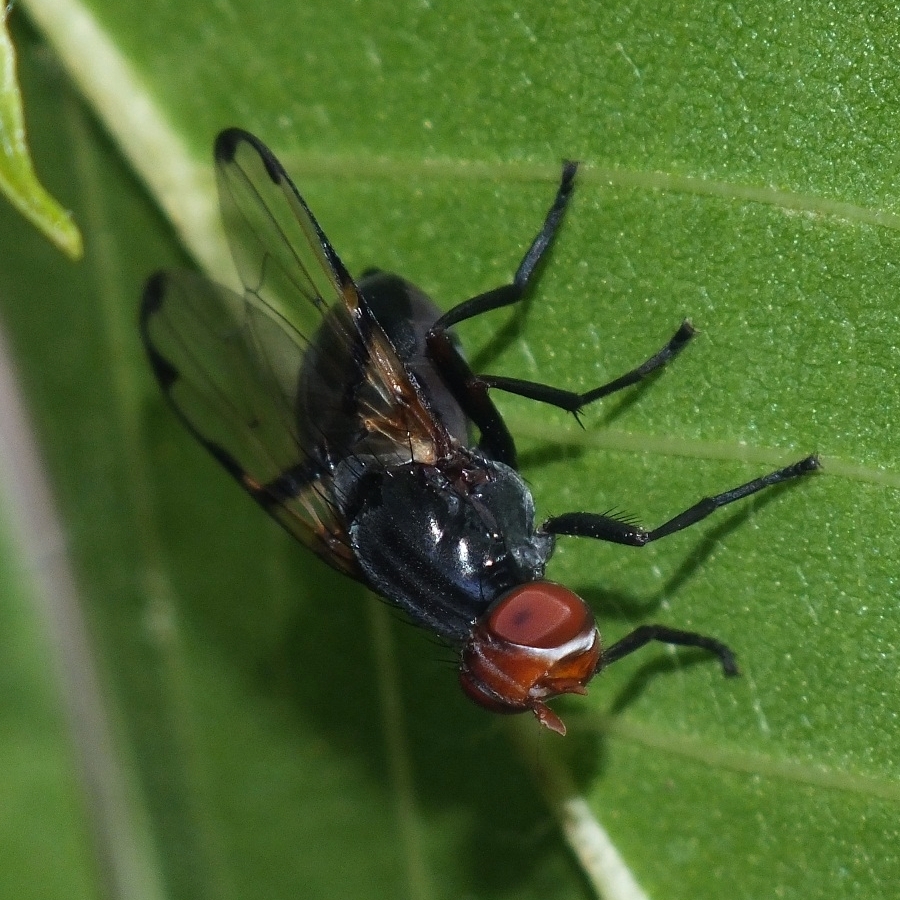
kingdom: Animalia
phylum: Arthropoda
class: Insecta
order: Diptera
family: Ulidiidae
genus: Ceroxys
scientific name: Ceroxys munda
